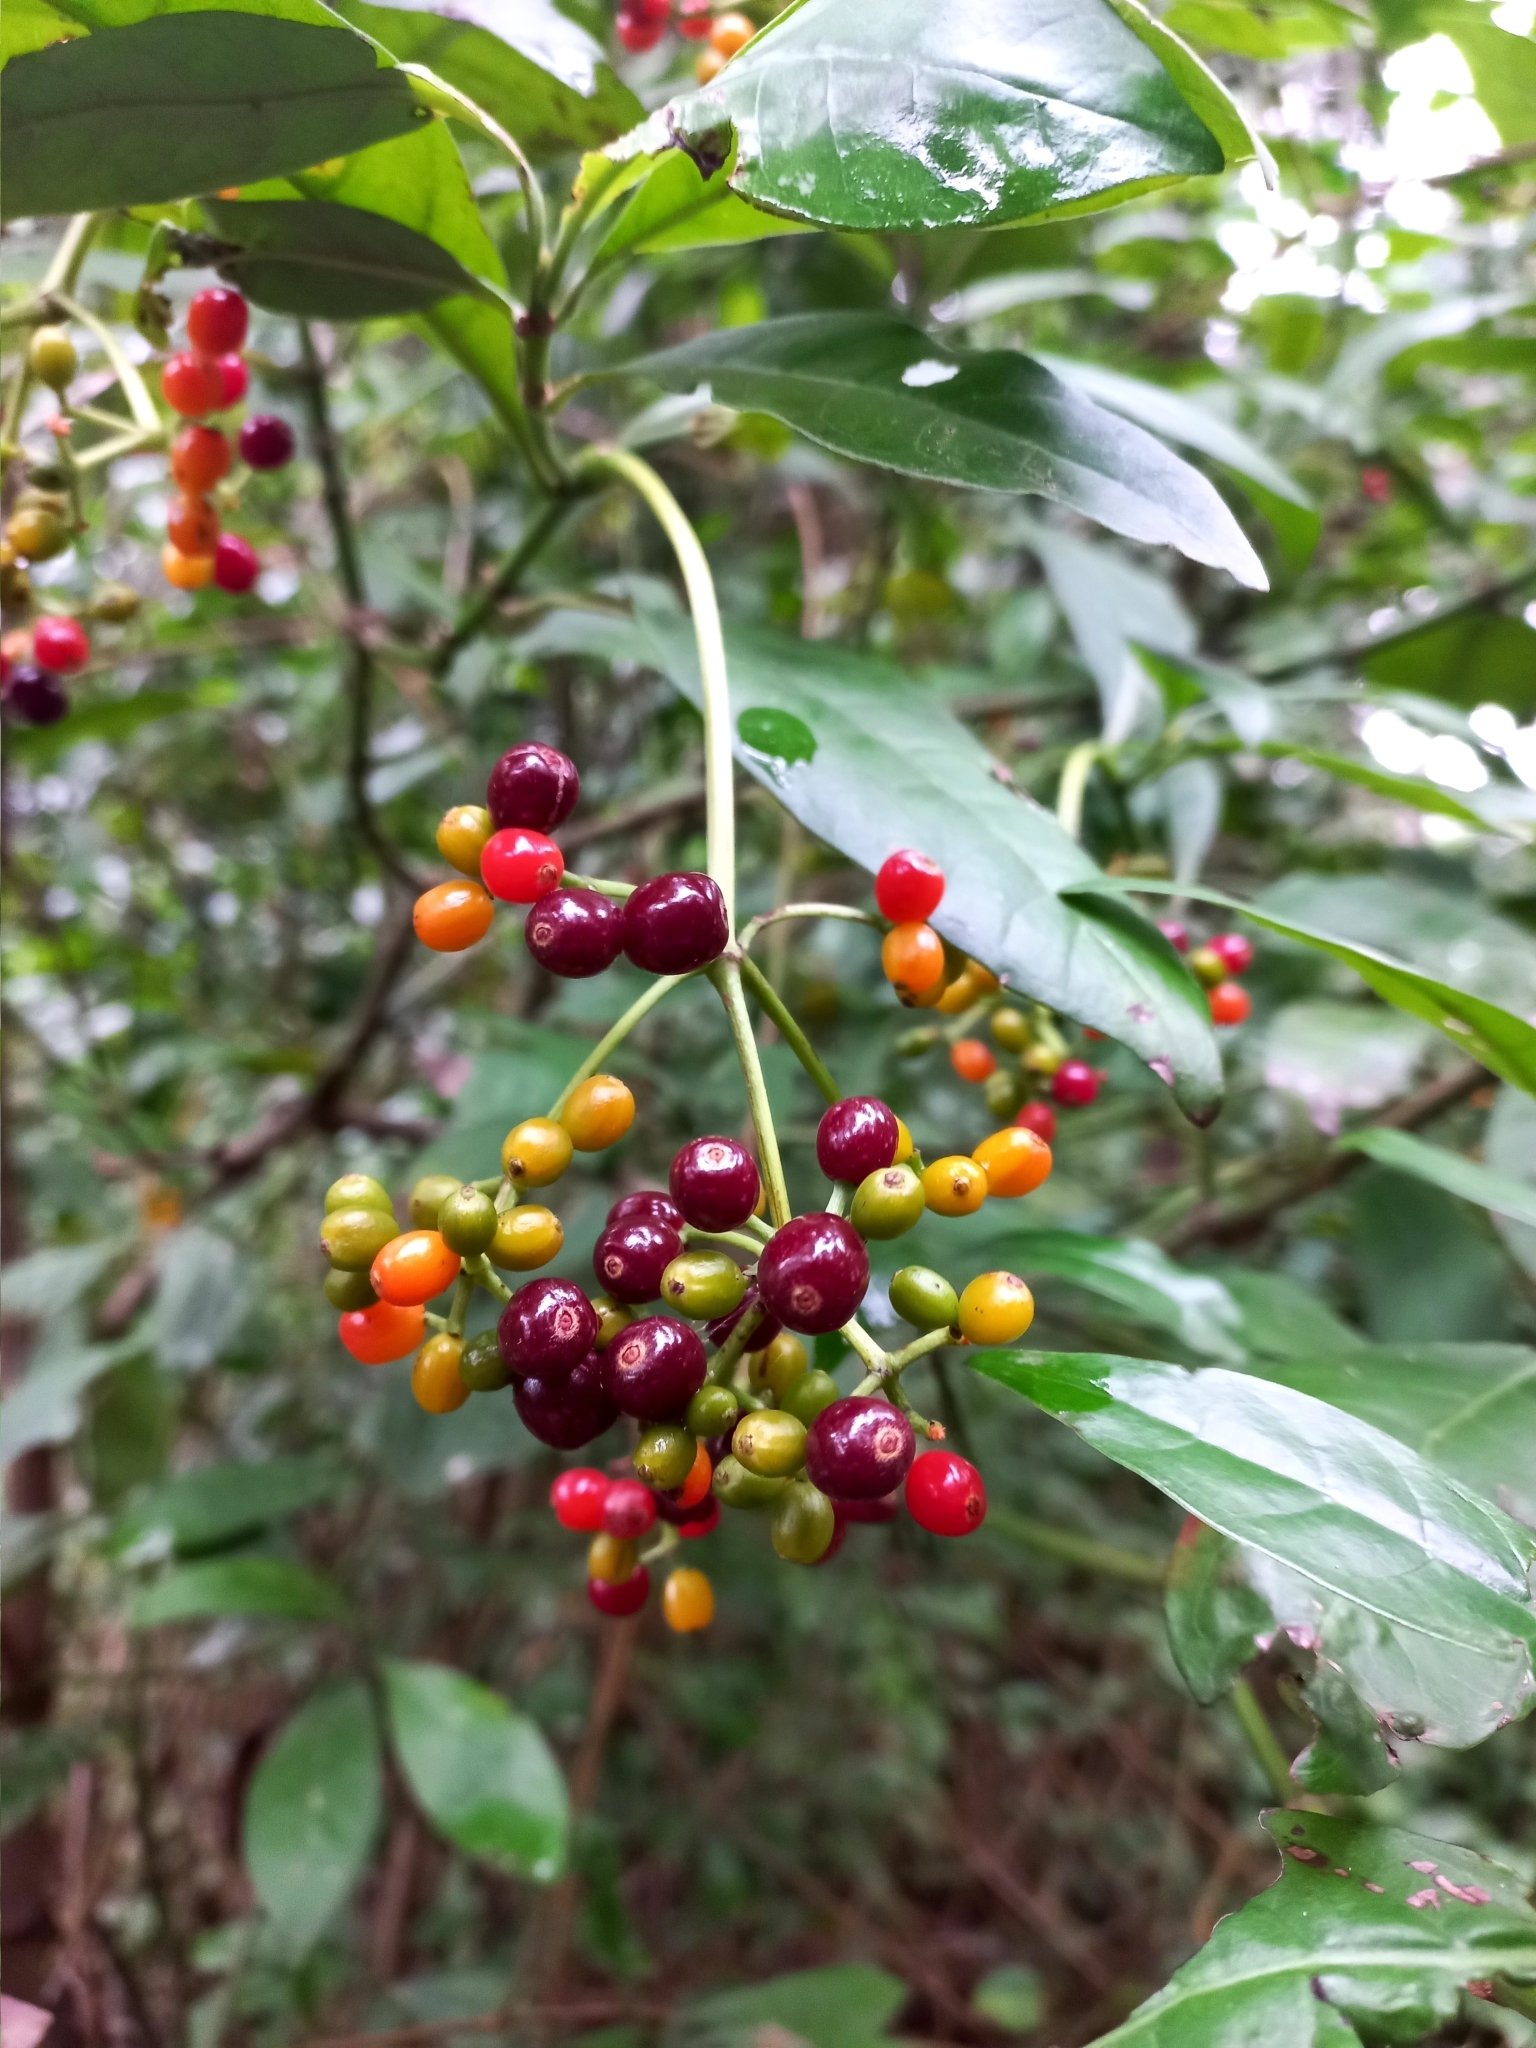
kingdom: Plantae
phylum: Tracheophyta
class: Magnoliopsida
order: Gentianales
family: Rubiaceae
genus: Psychotria
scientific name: Psychotria carthagenensis
